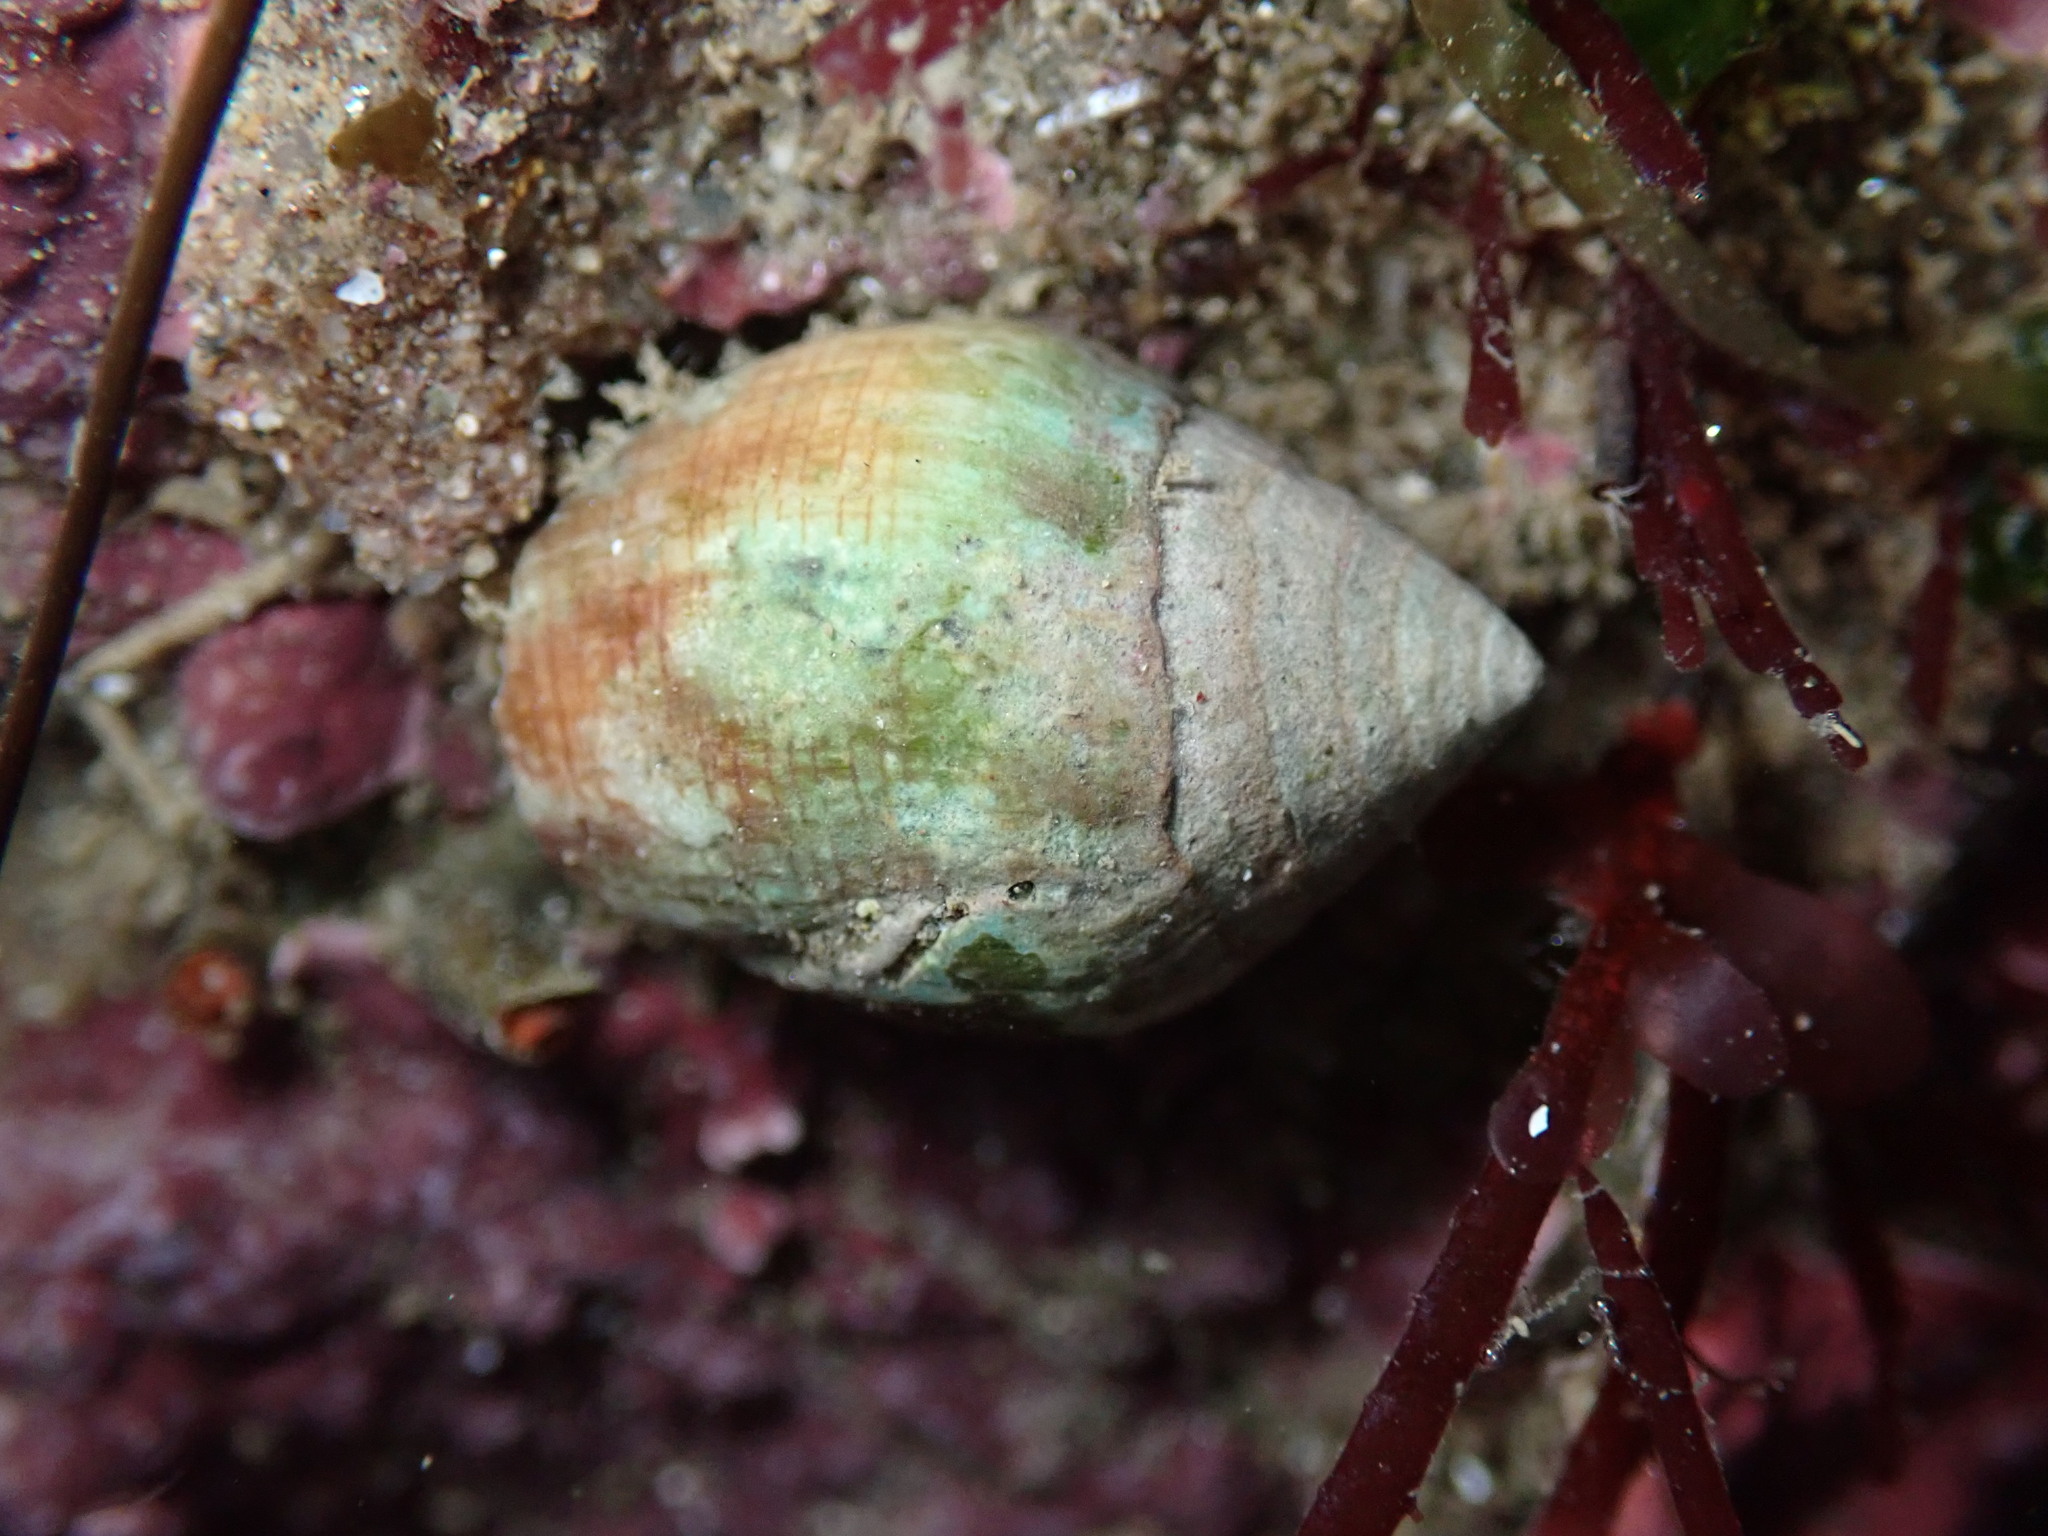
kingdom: Animalia
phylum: Mollusca
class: Gastropoda
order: Neogastropoda
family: Conidae
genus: Californiconus
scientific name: Californiconus californicus
